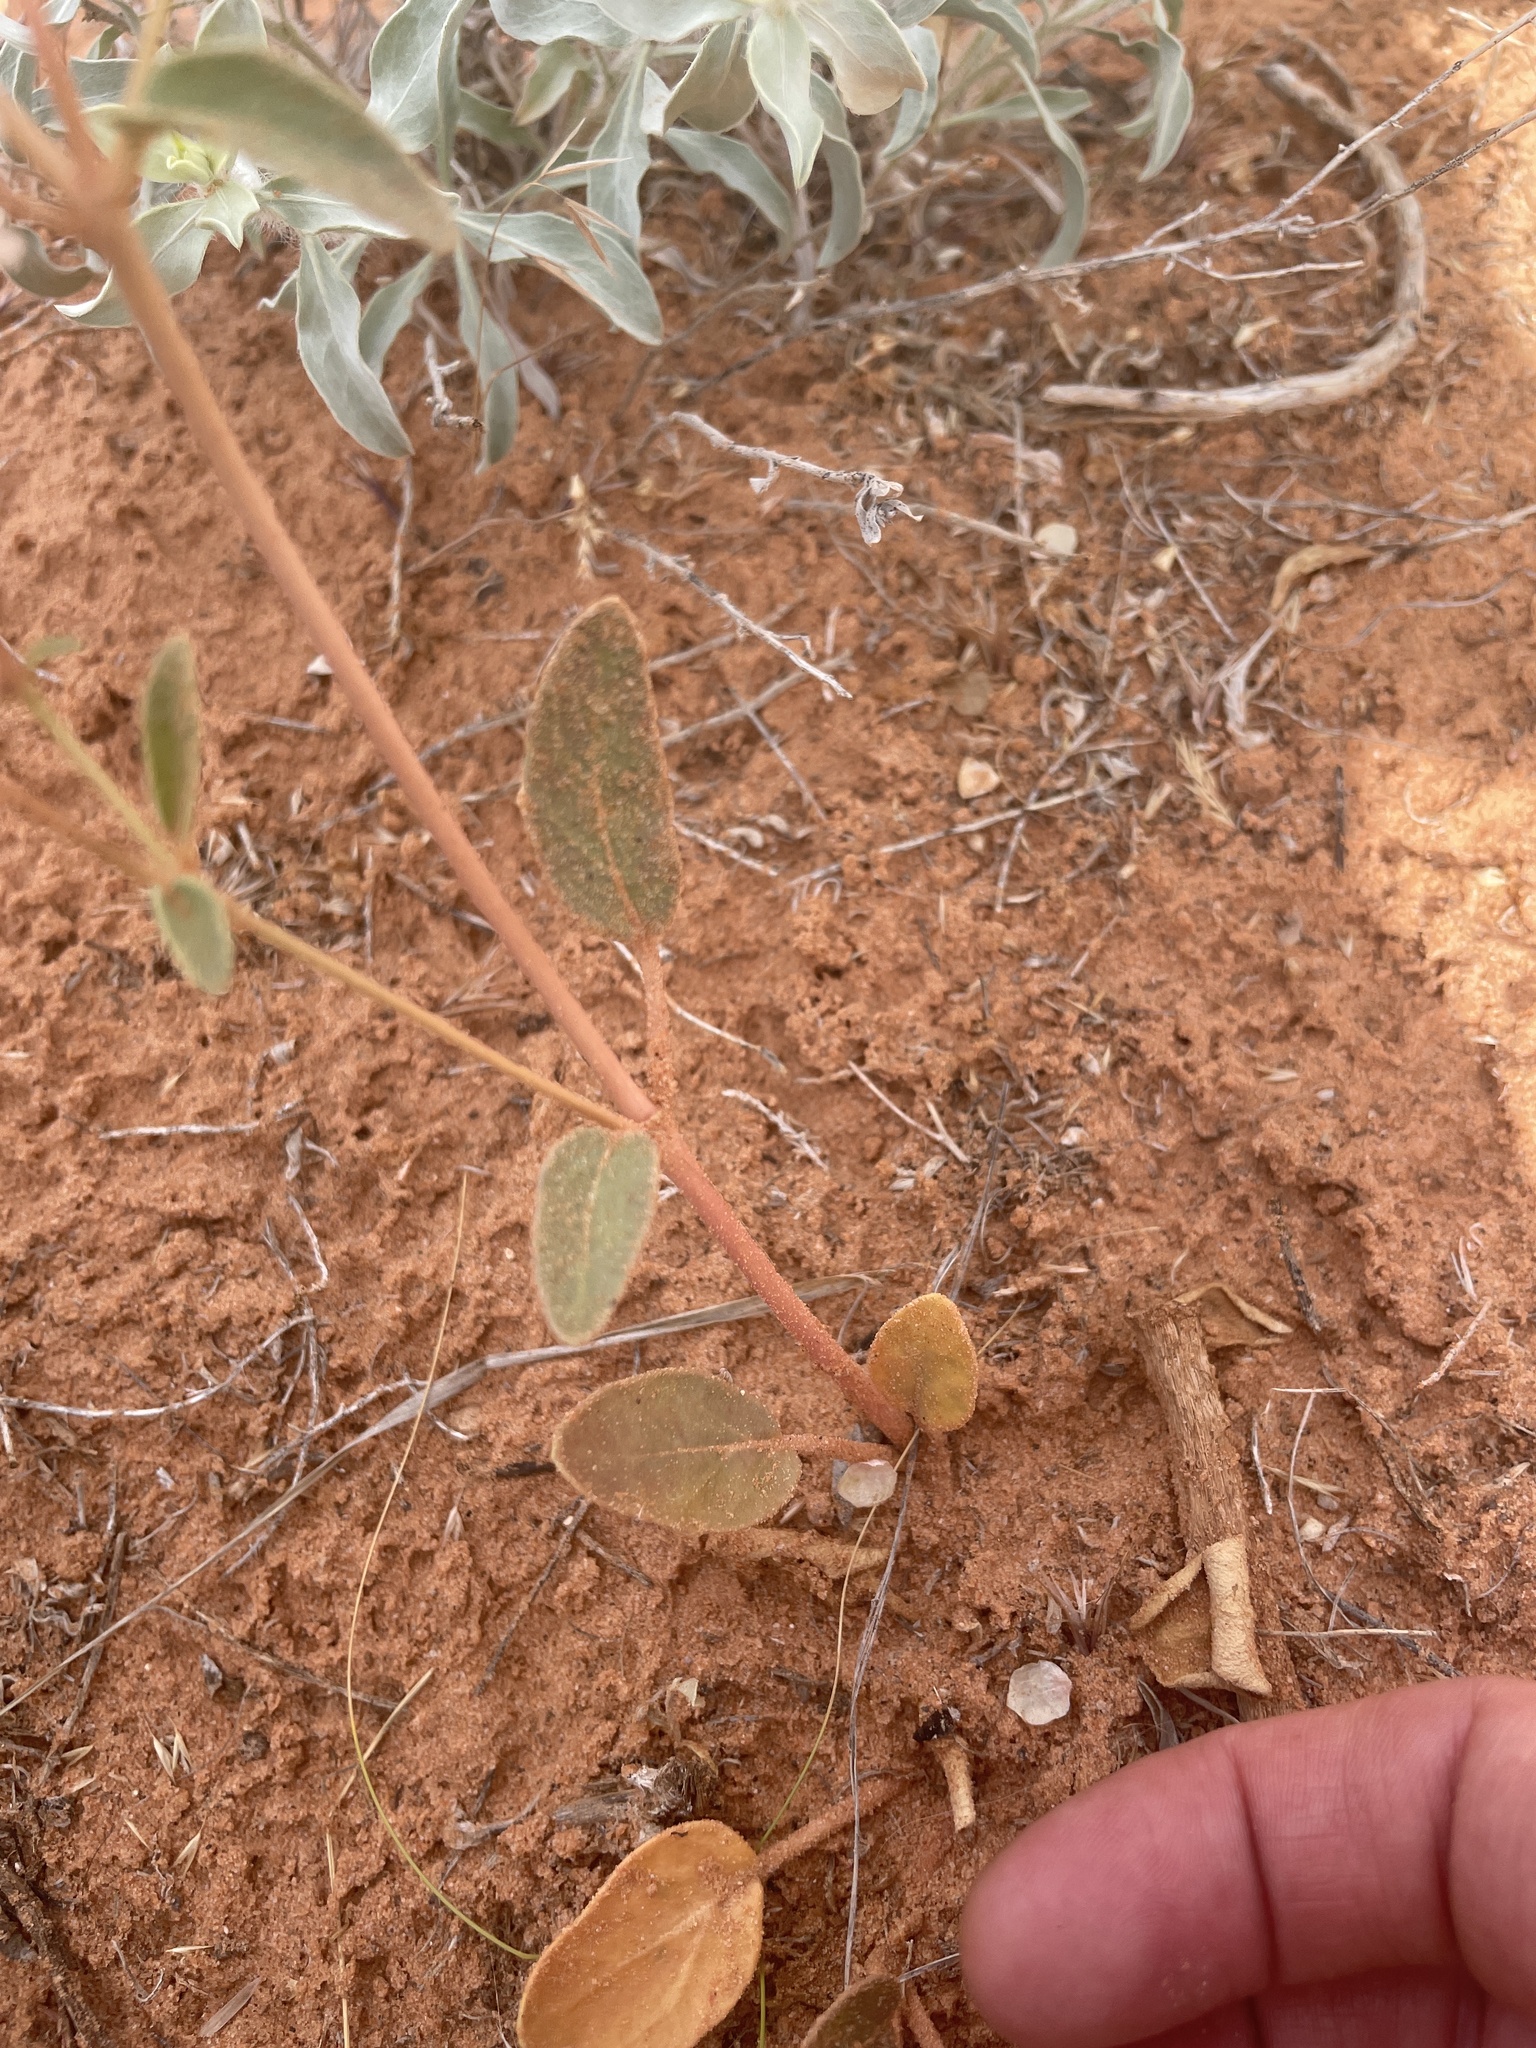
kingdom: Plantae
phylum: Tracheophyta
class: Magnoliopsida
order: Caryophyllales
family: Nyctaginaceae
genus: Abronia
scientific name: Abronia elliptica
